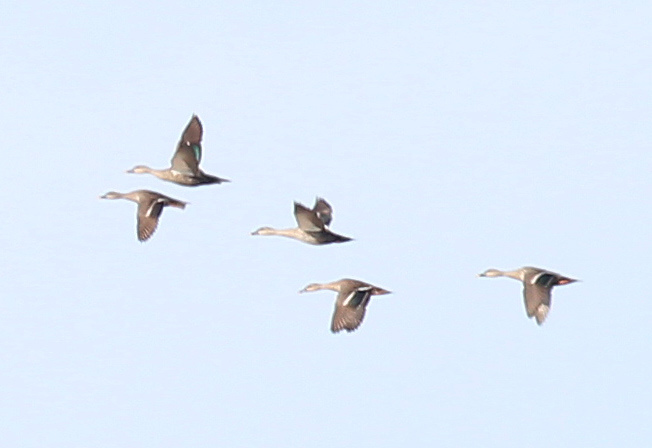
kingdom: Animalia
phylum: Chordata
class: Aves
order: Anseriformes
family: Anatidae
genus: Anas
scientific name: Anas poecilorhyncha
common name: Indian spot-billed duck
